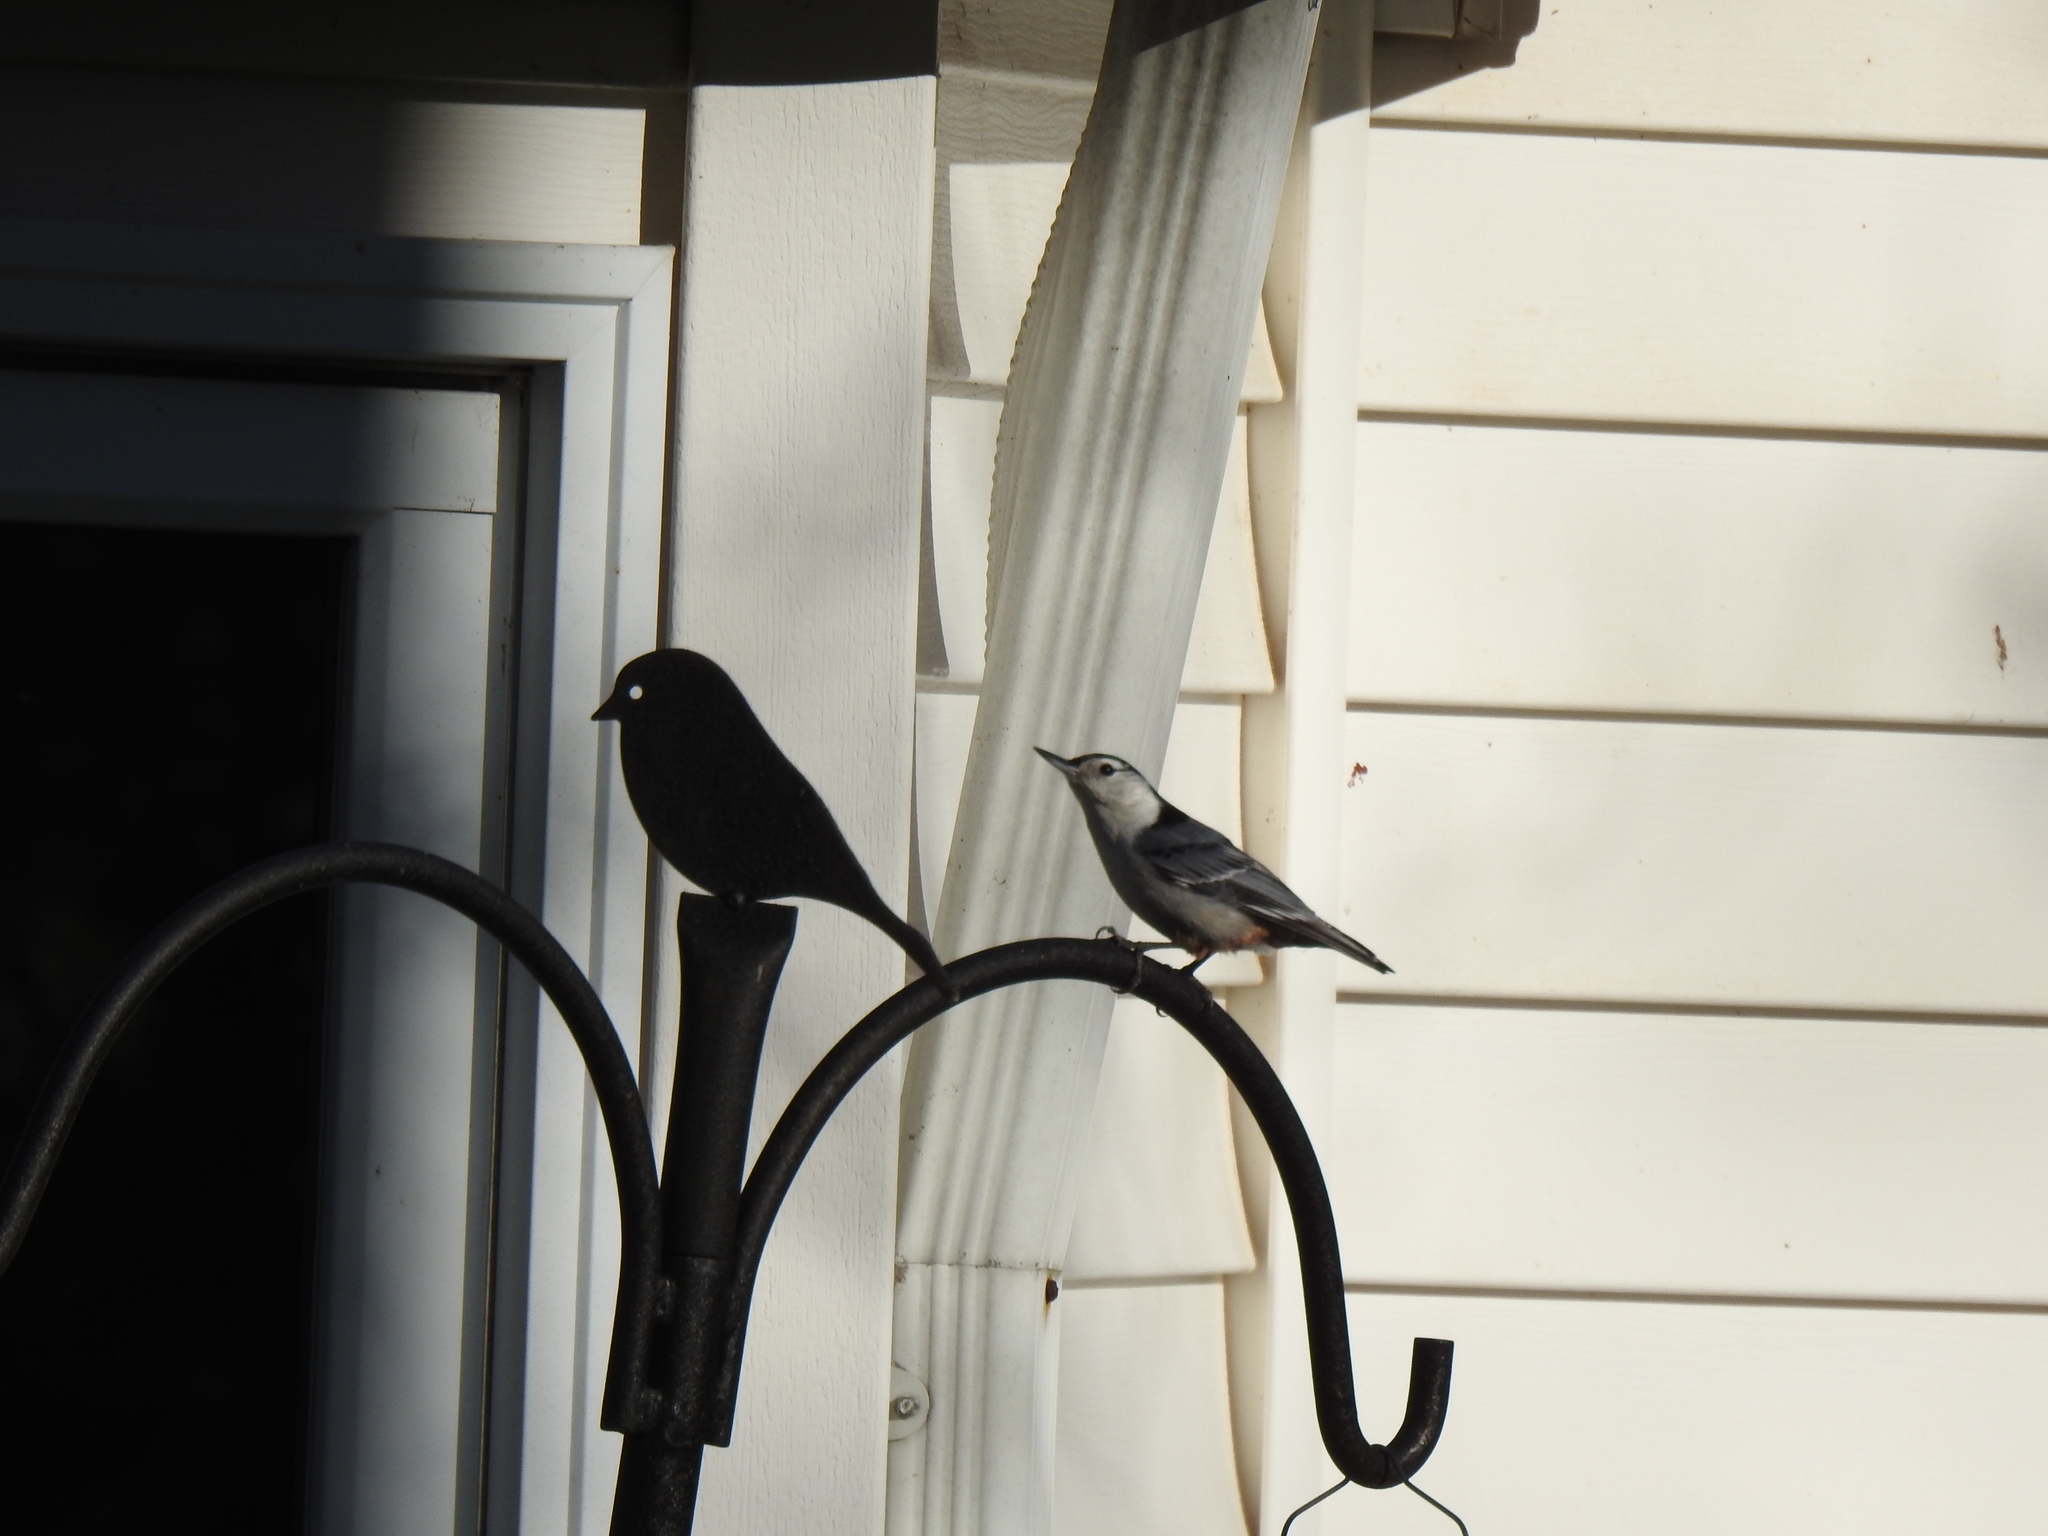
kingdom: Animalia
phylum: Chordata
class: Aves
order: Passeriformes
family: Sittidae
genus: Sitta
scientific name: Sitta carolinensis
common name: White-breasted nuthatch
